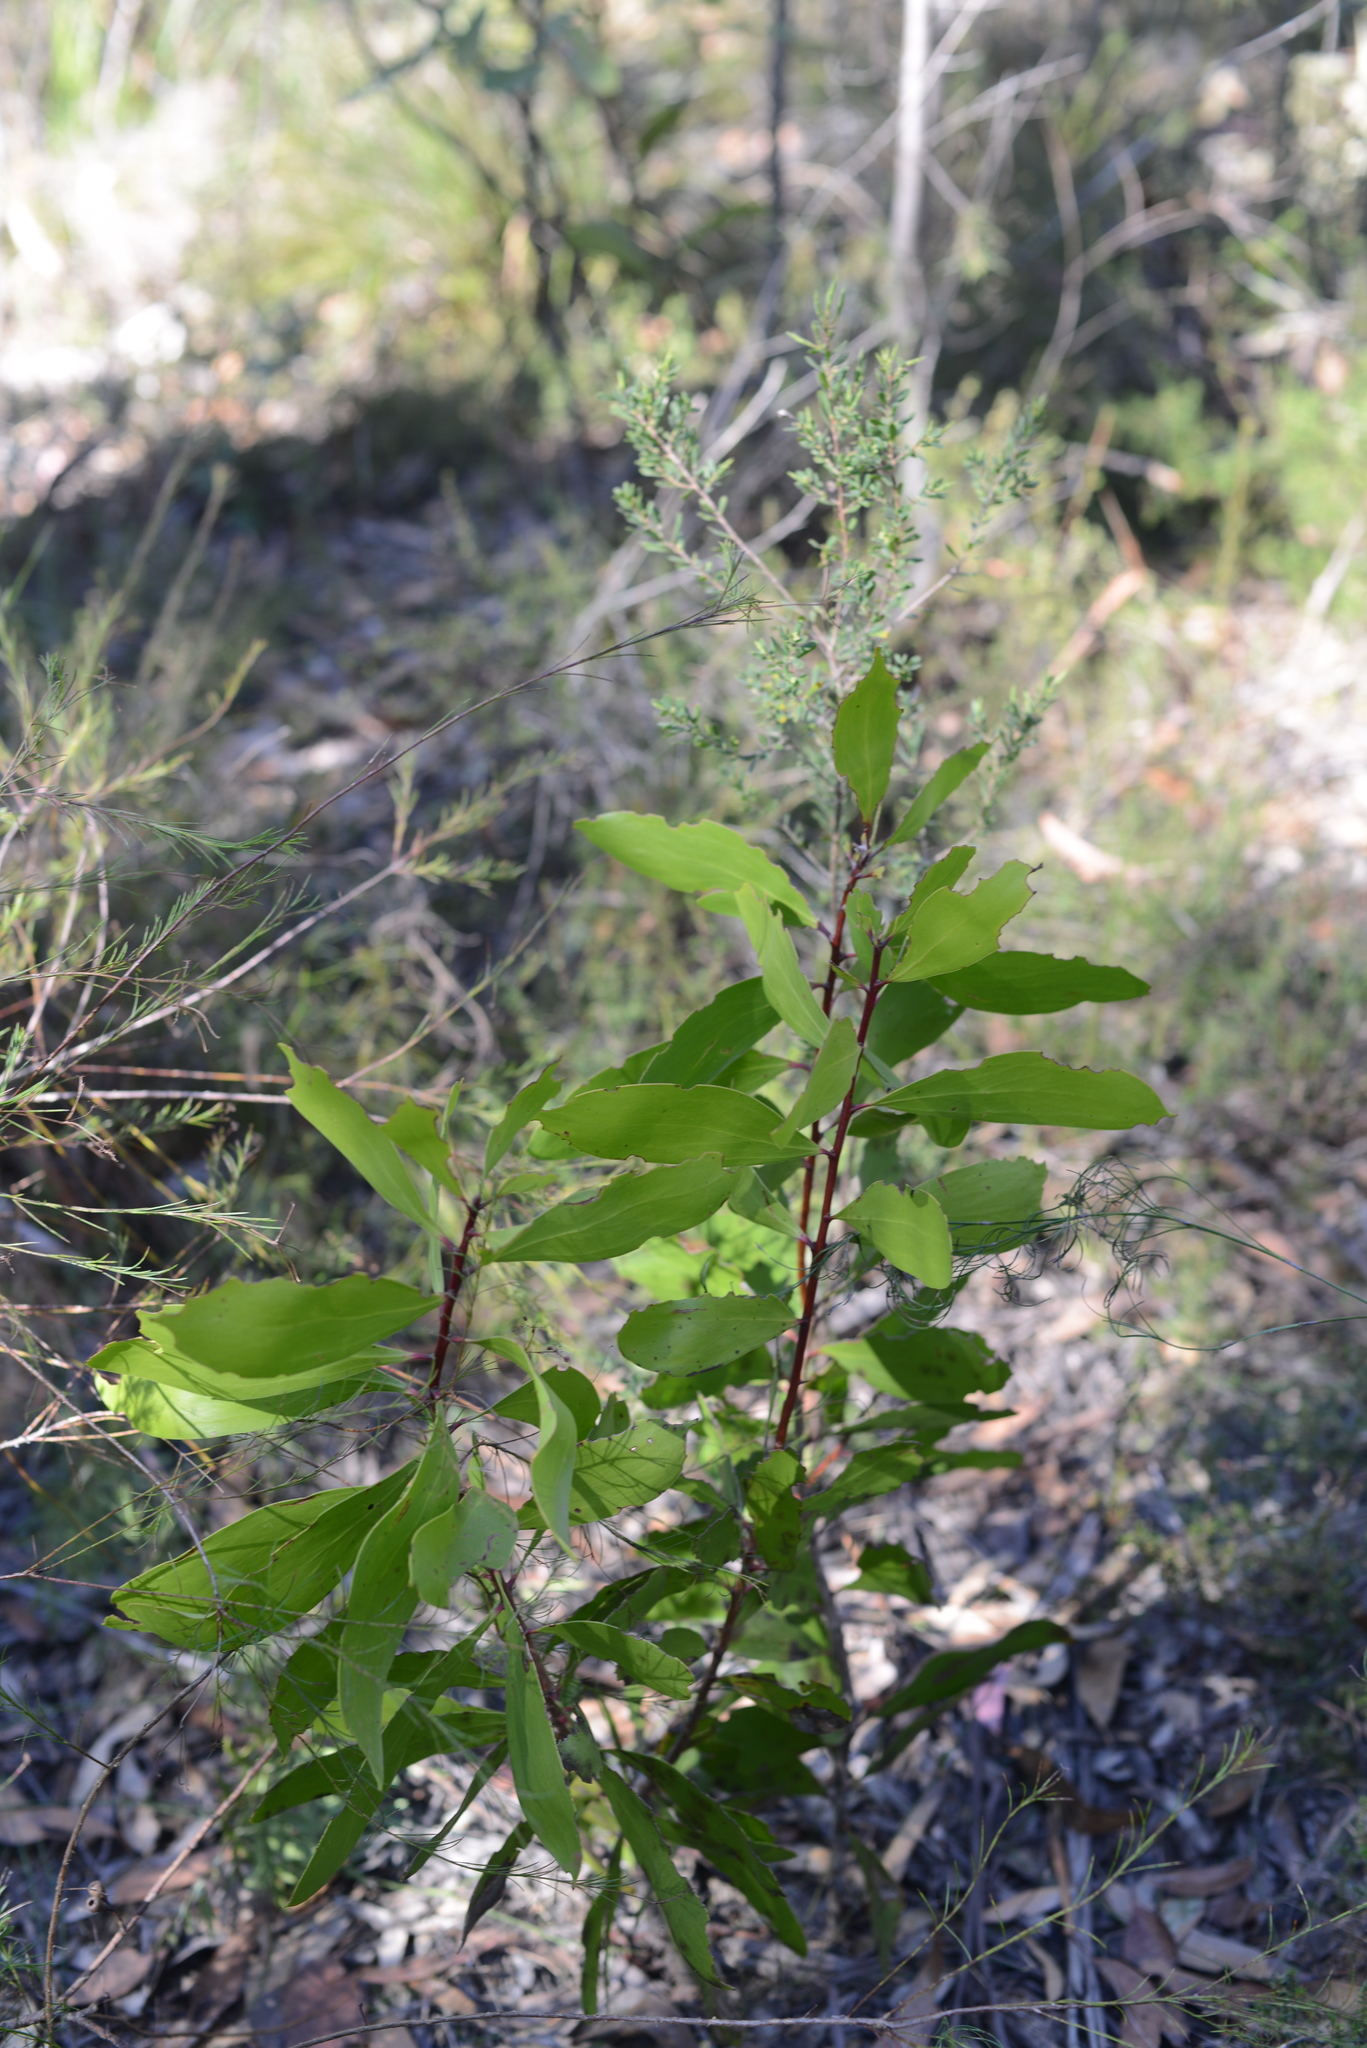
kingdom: Plantae
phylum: Tracheophyta
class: Magnoliopsida
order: Proteales
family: Proteaceae
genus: Persoonia
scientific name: Persoonia levis
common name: Smooth geebung
